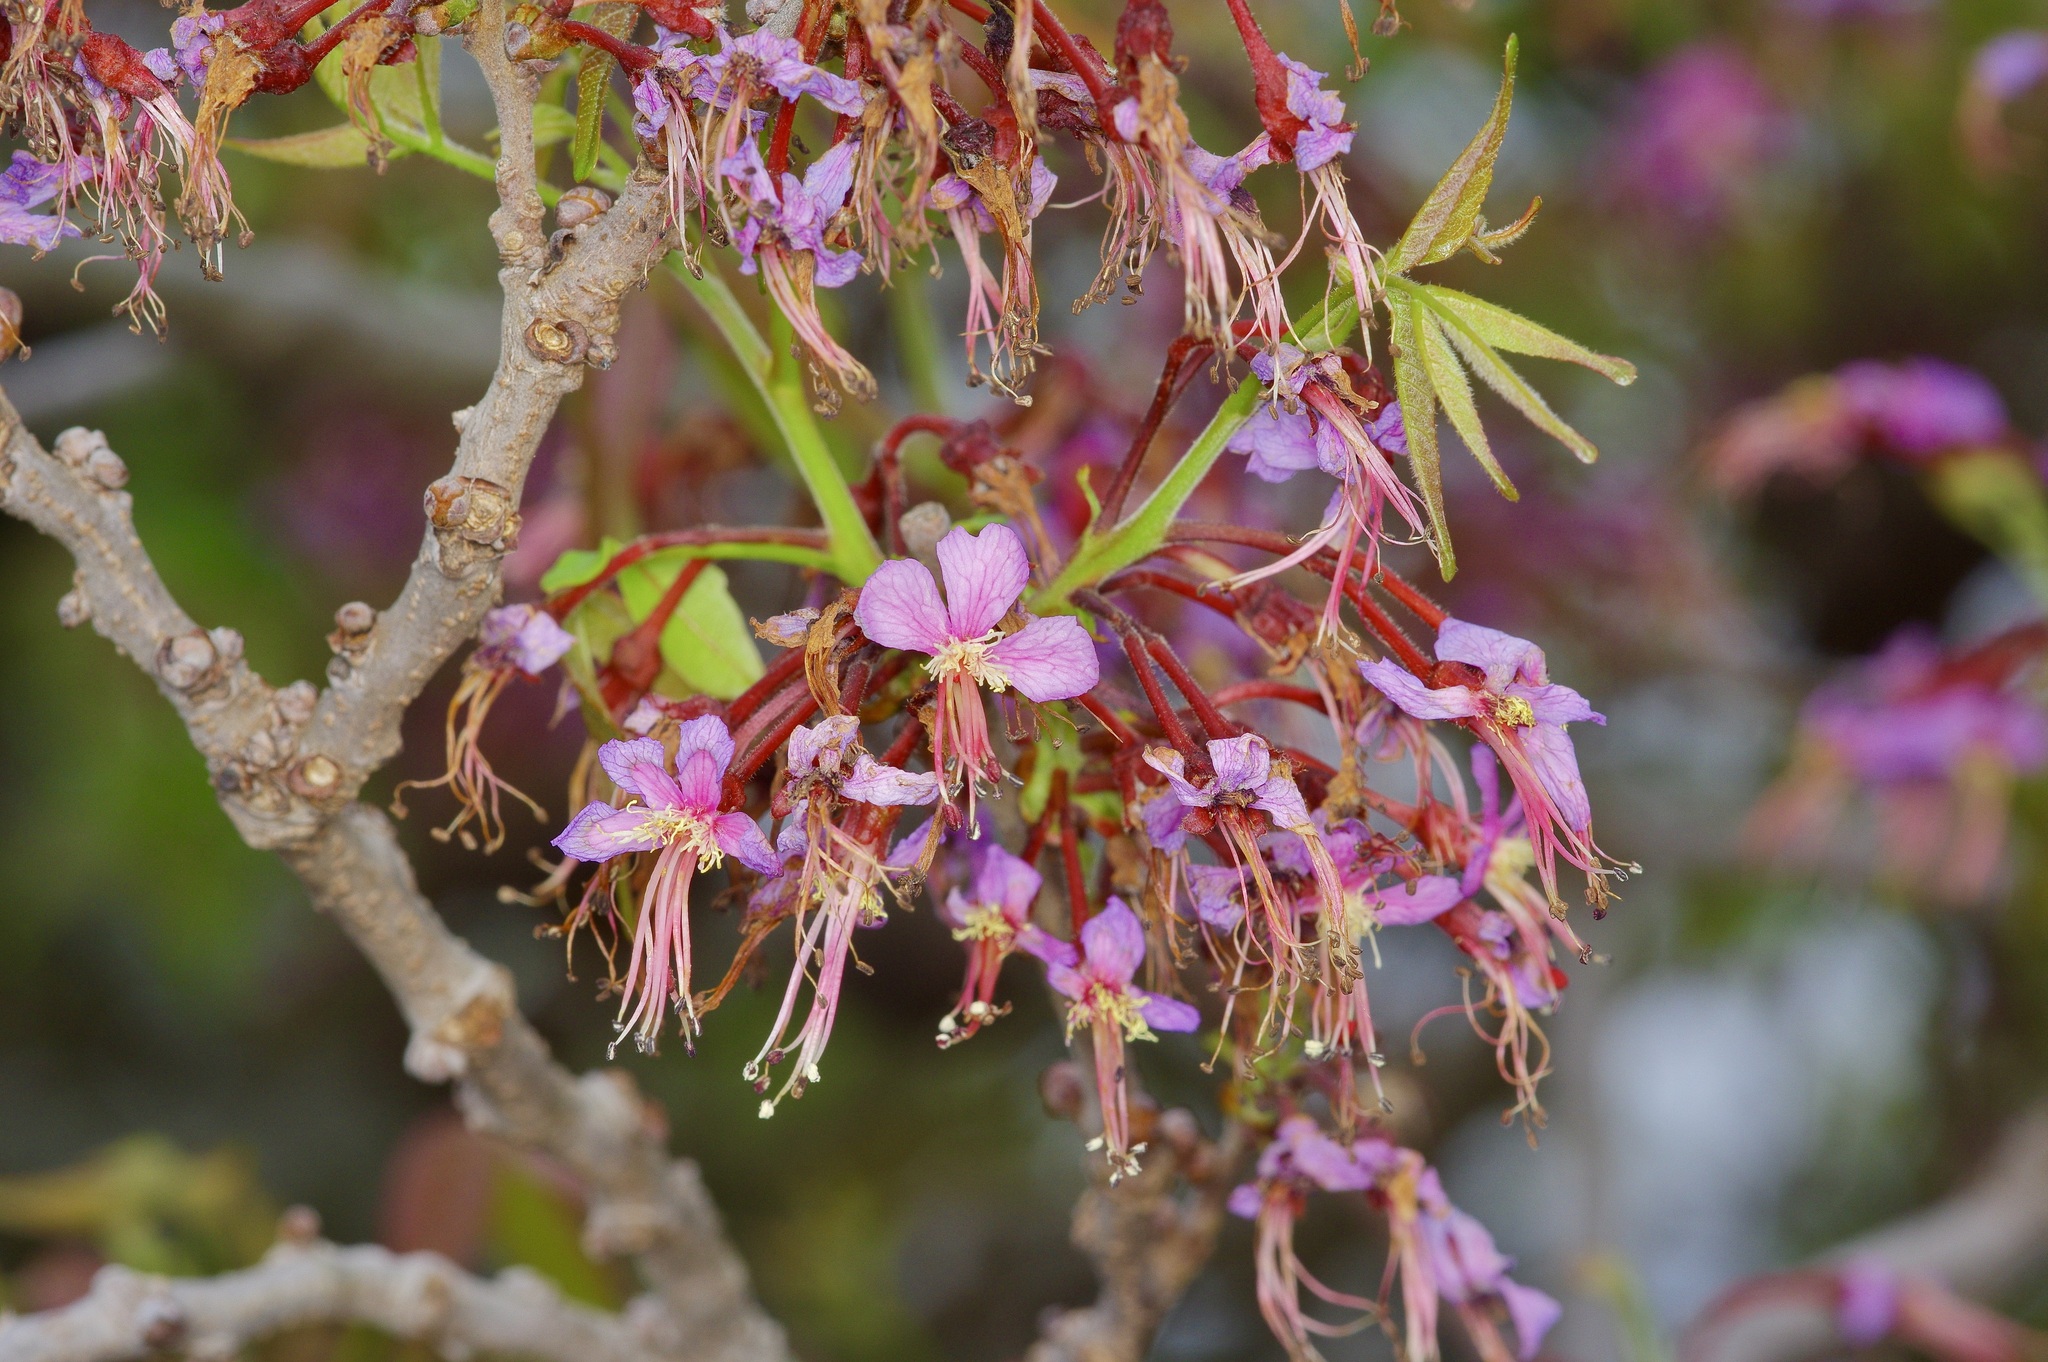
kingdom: Plantae
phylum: Tracheophyta
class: Magnoliopsida
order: Sapindales
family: Sapindaceae
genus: Ungnadia
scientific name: Ungnadia speciosa
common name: Texas-buckeye
